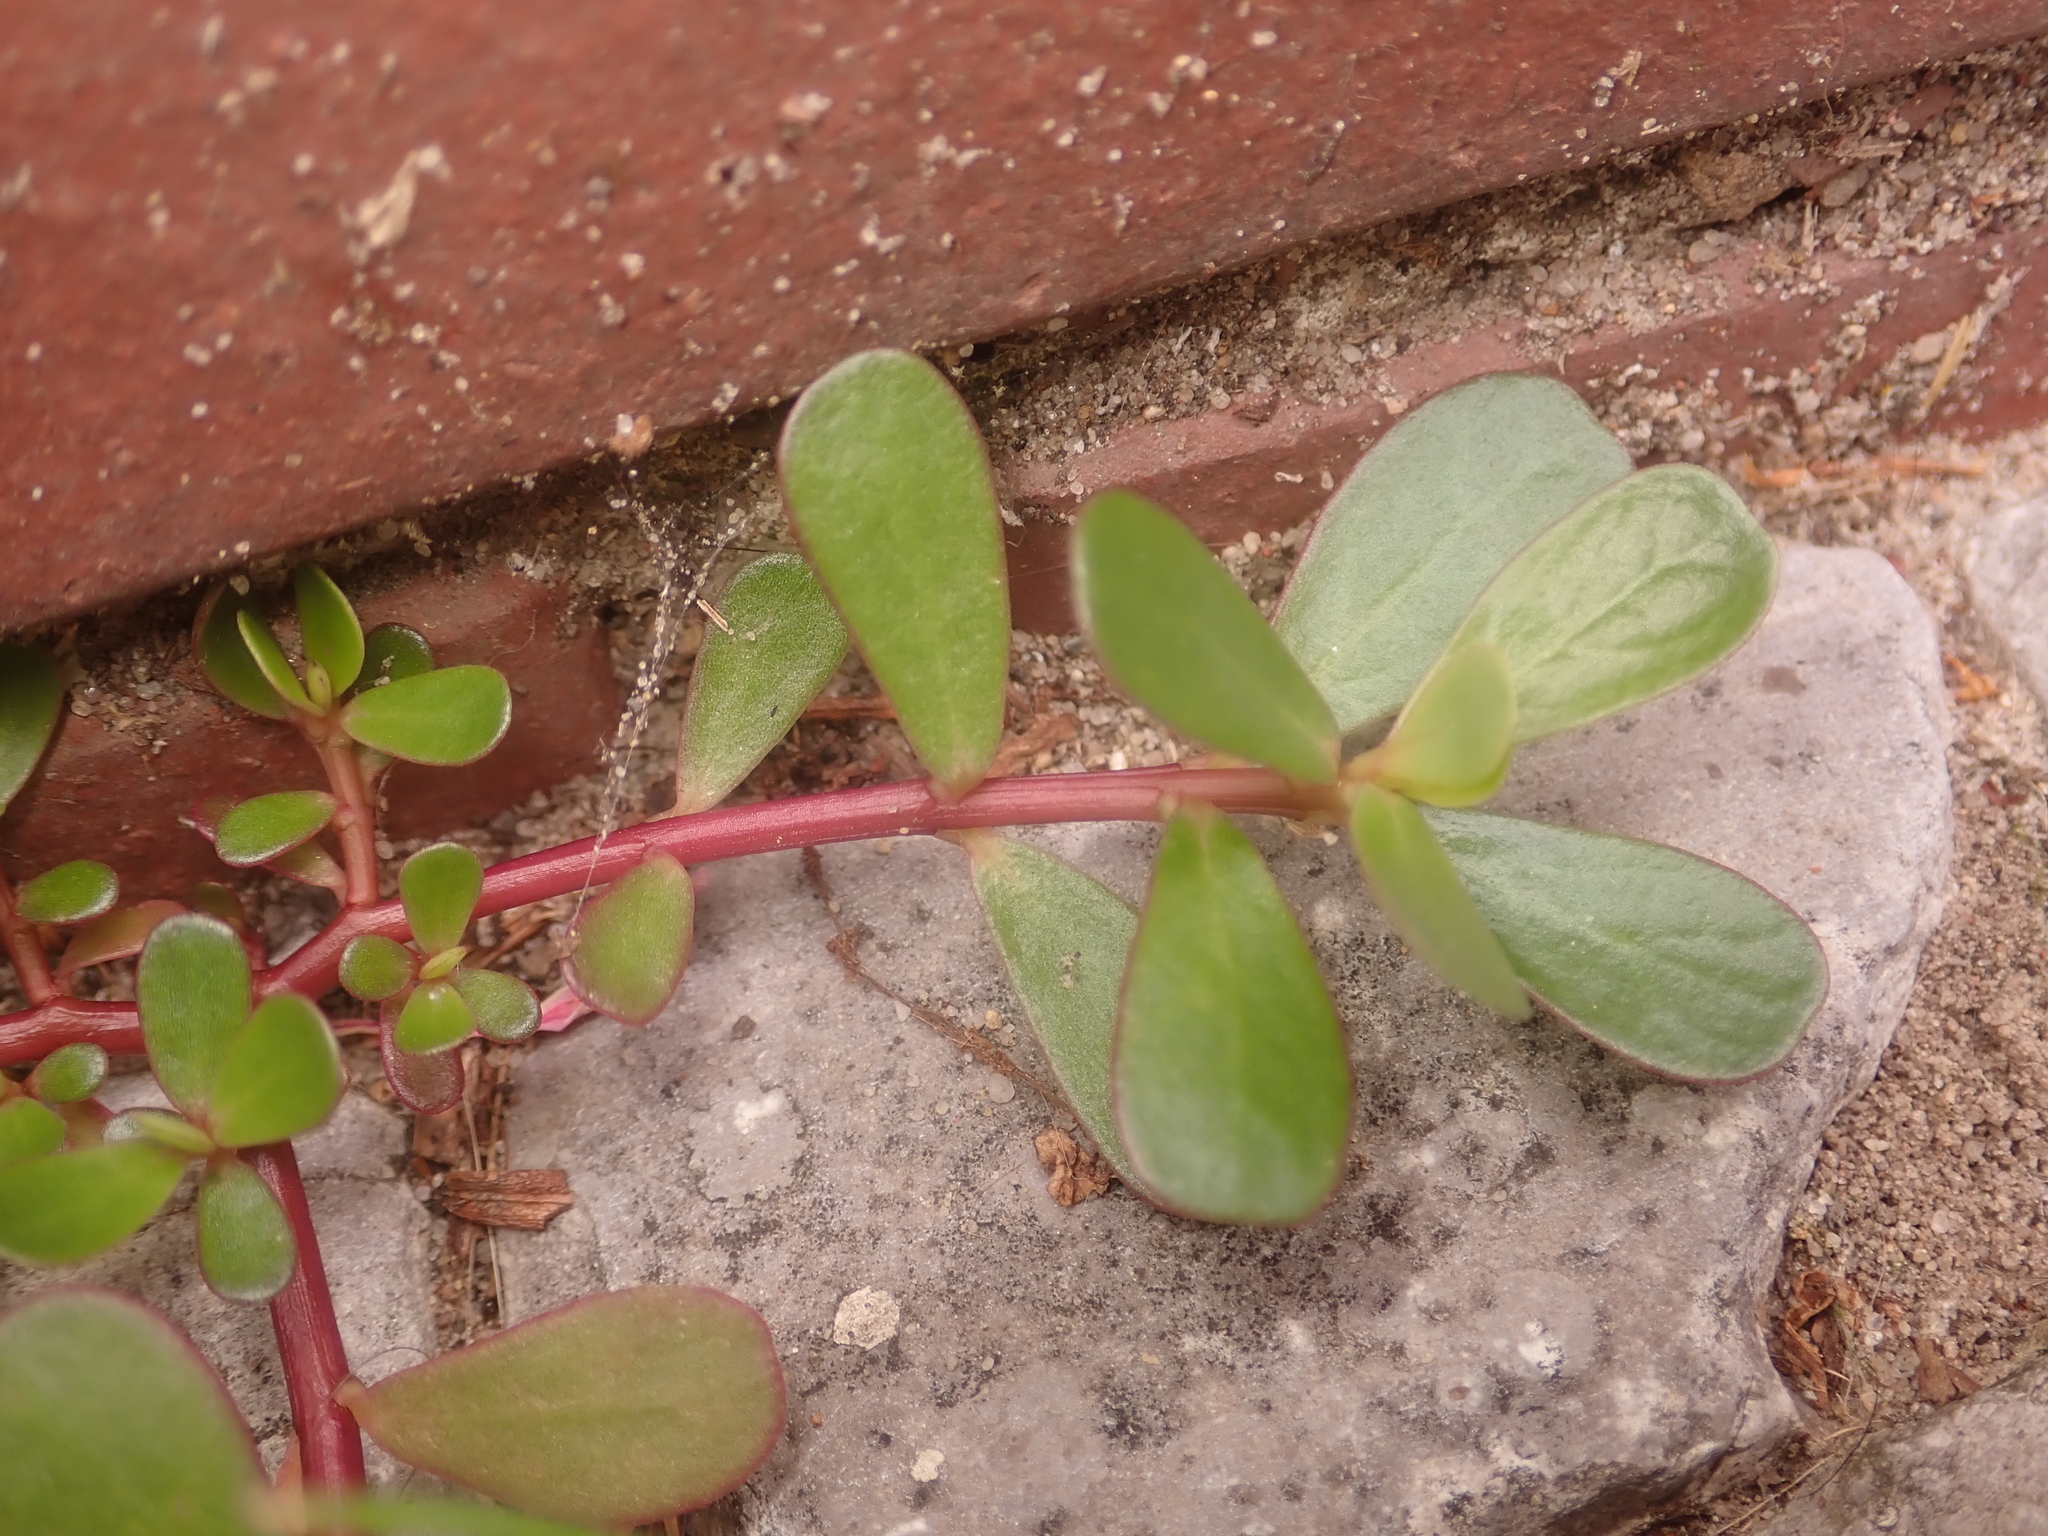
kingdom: Plantae
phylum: Tracheophyta
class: Magnoliopsida
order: Caryophyllales
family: Portulacaceae
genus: Portulaca
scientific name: Portulaca oleracea
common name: Common purslane
